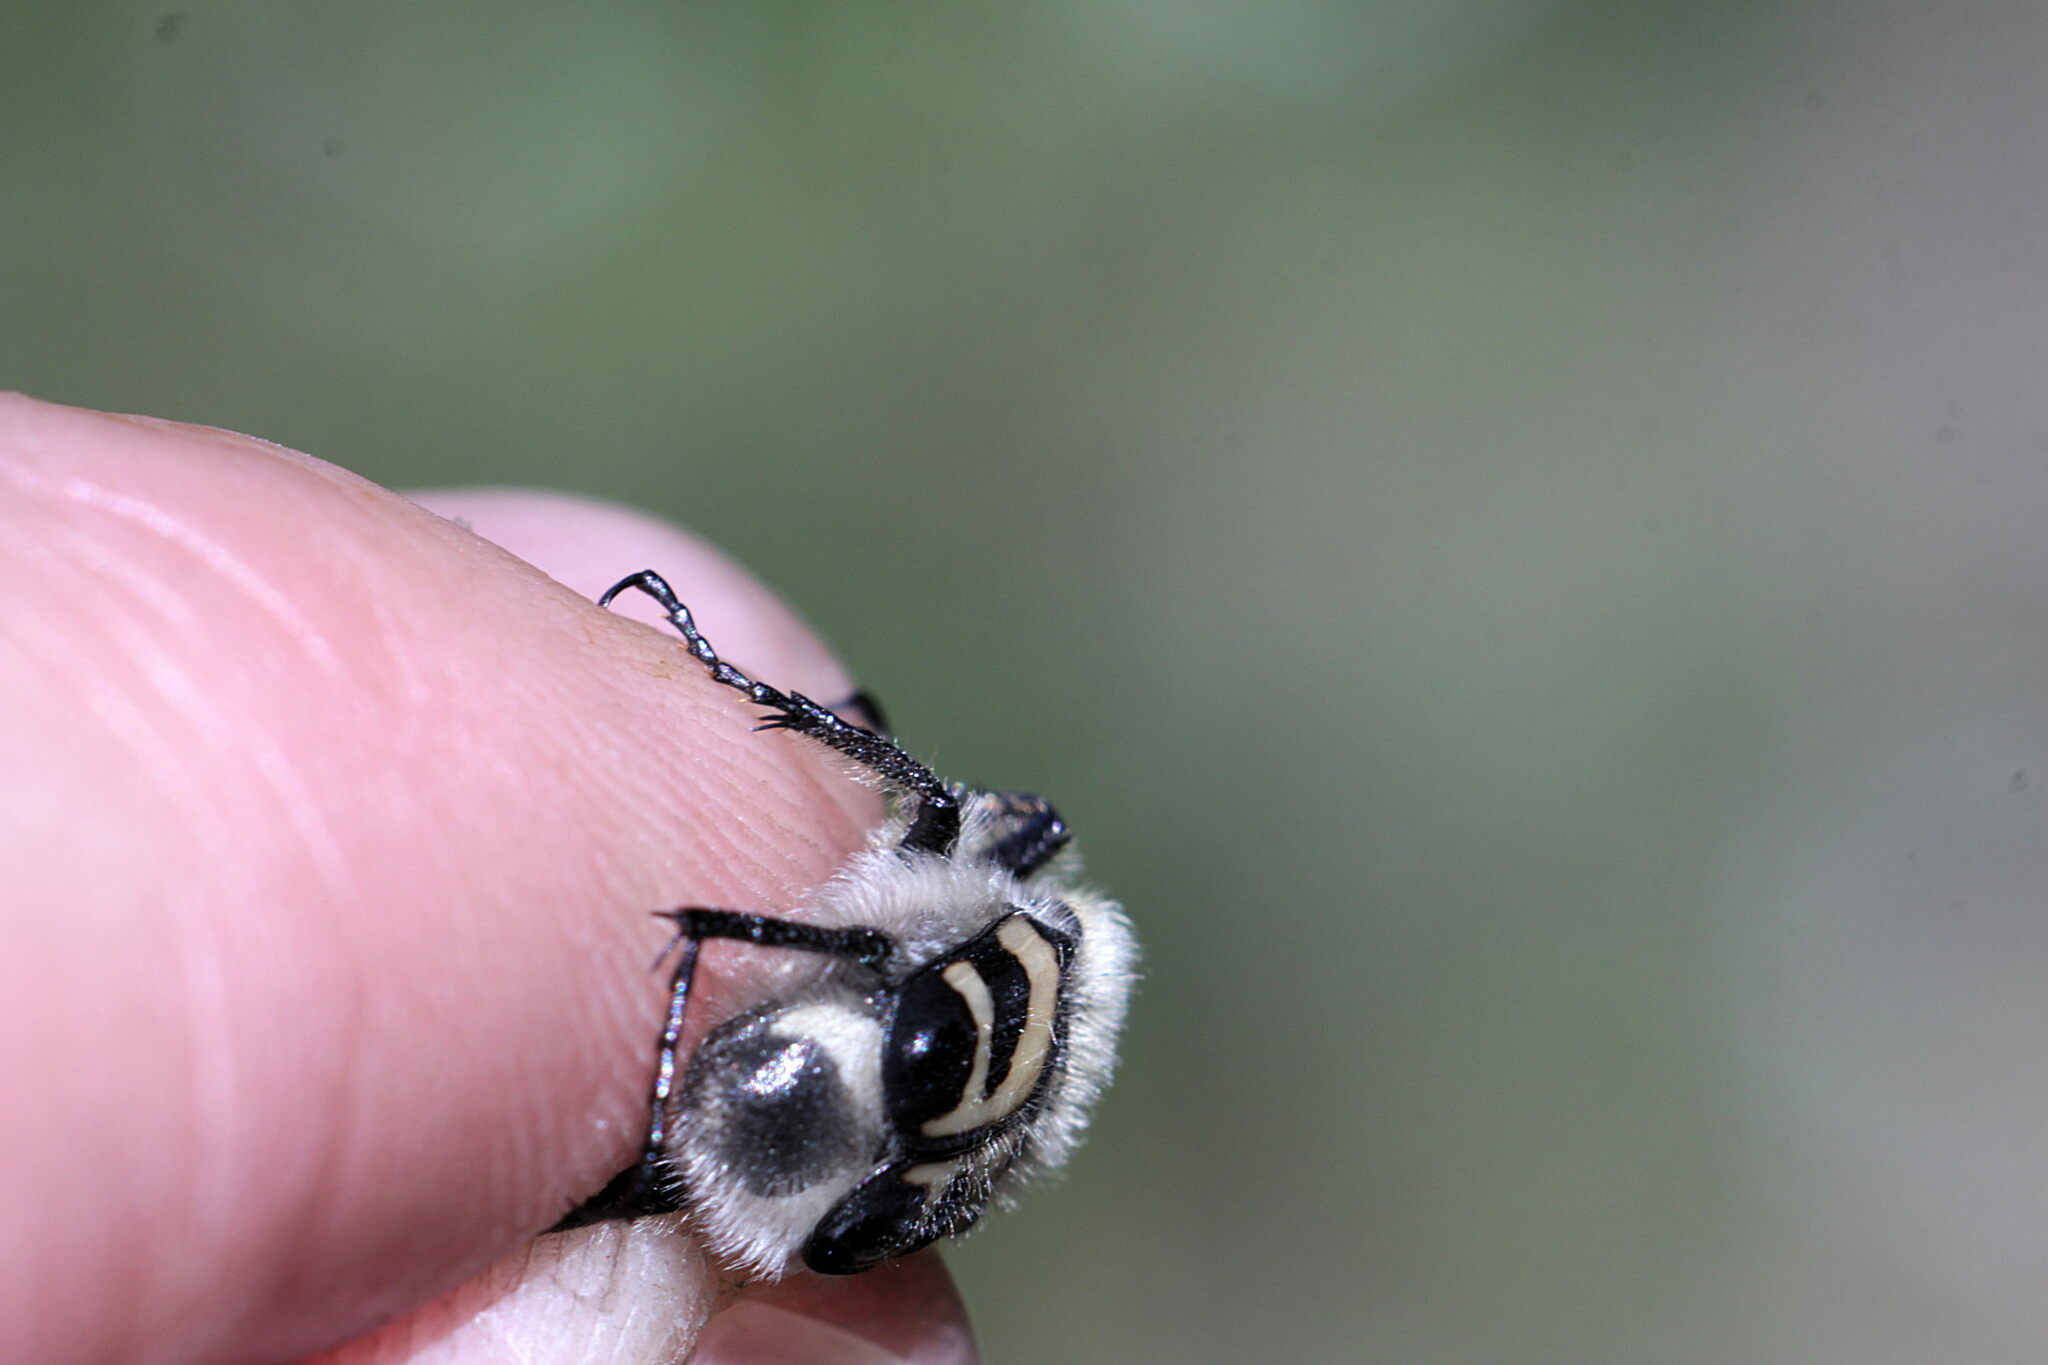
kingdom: Animalia
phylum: Arthropoda
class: Insecta
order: Coleoptera
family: Scarabaeidae
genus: Trichius
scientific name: Trichius fasciatus
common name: Bee beetle
